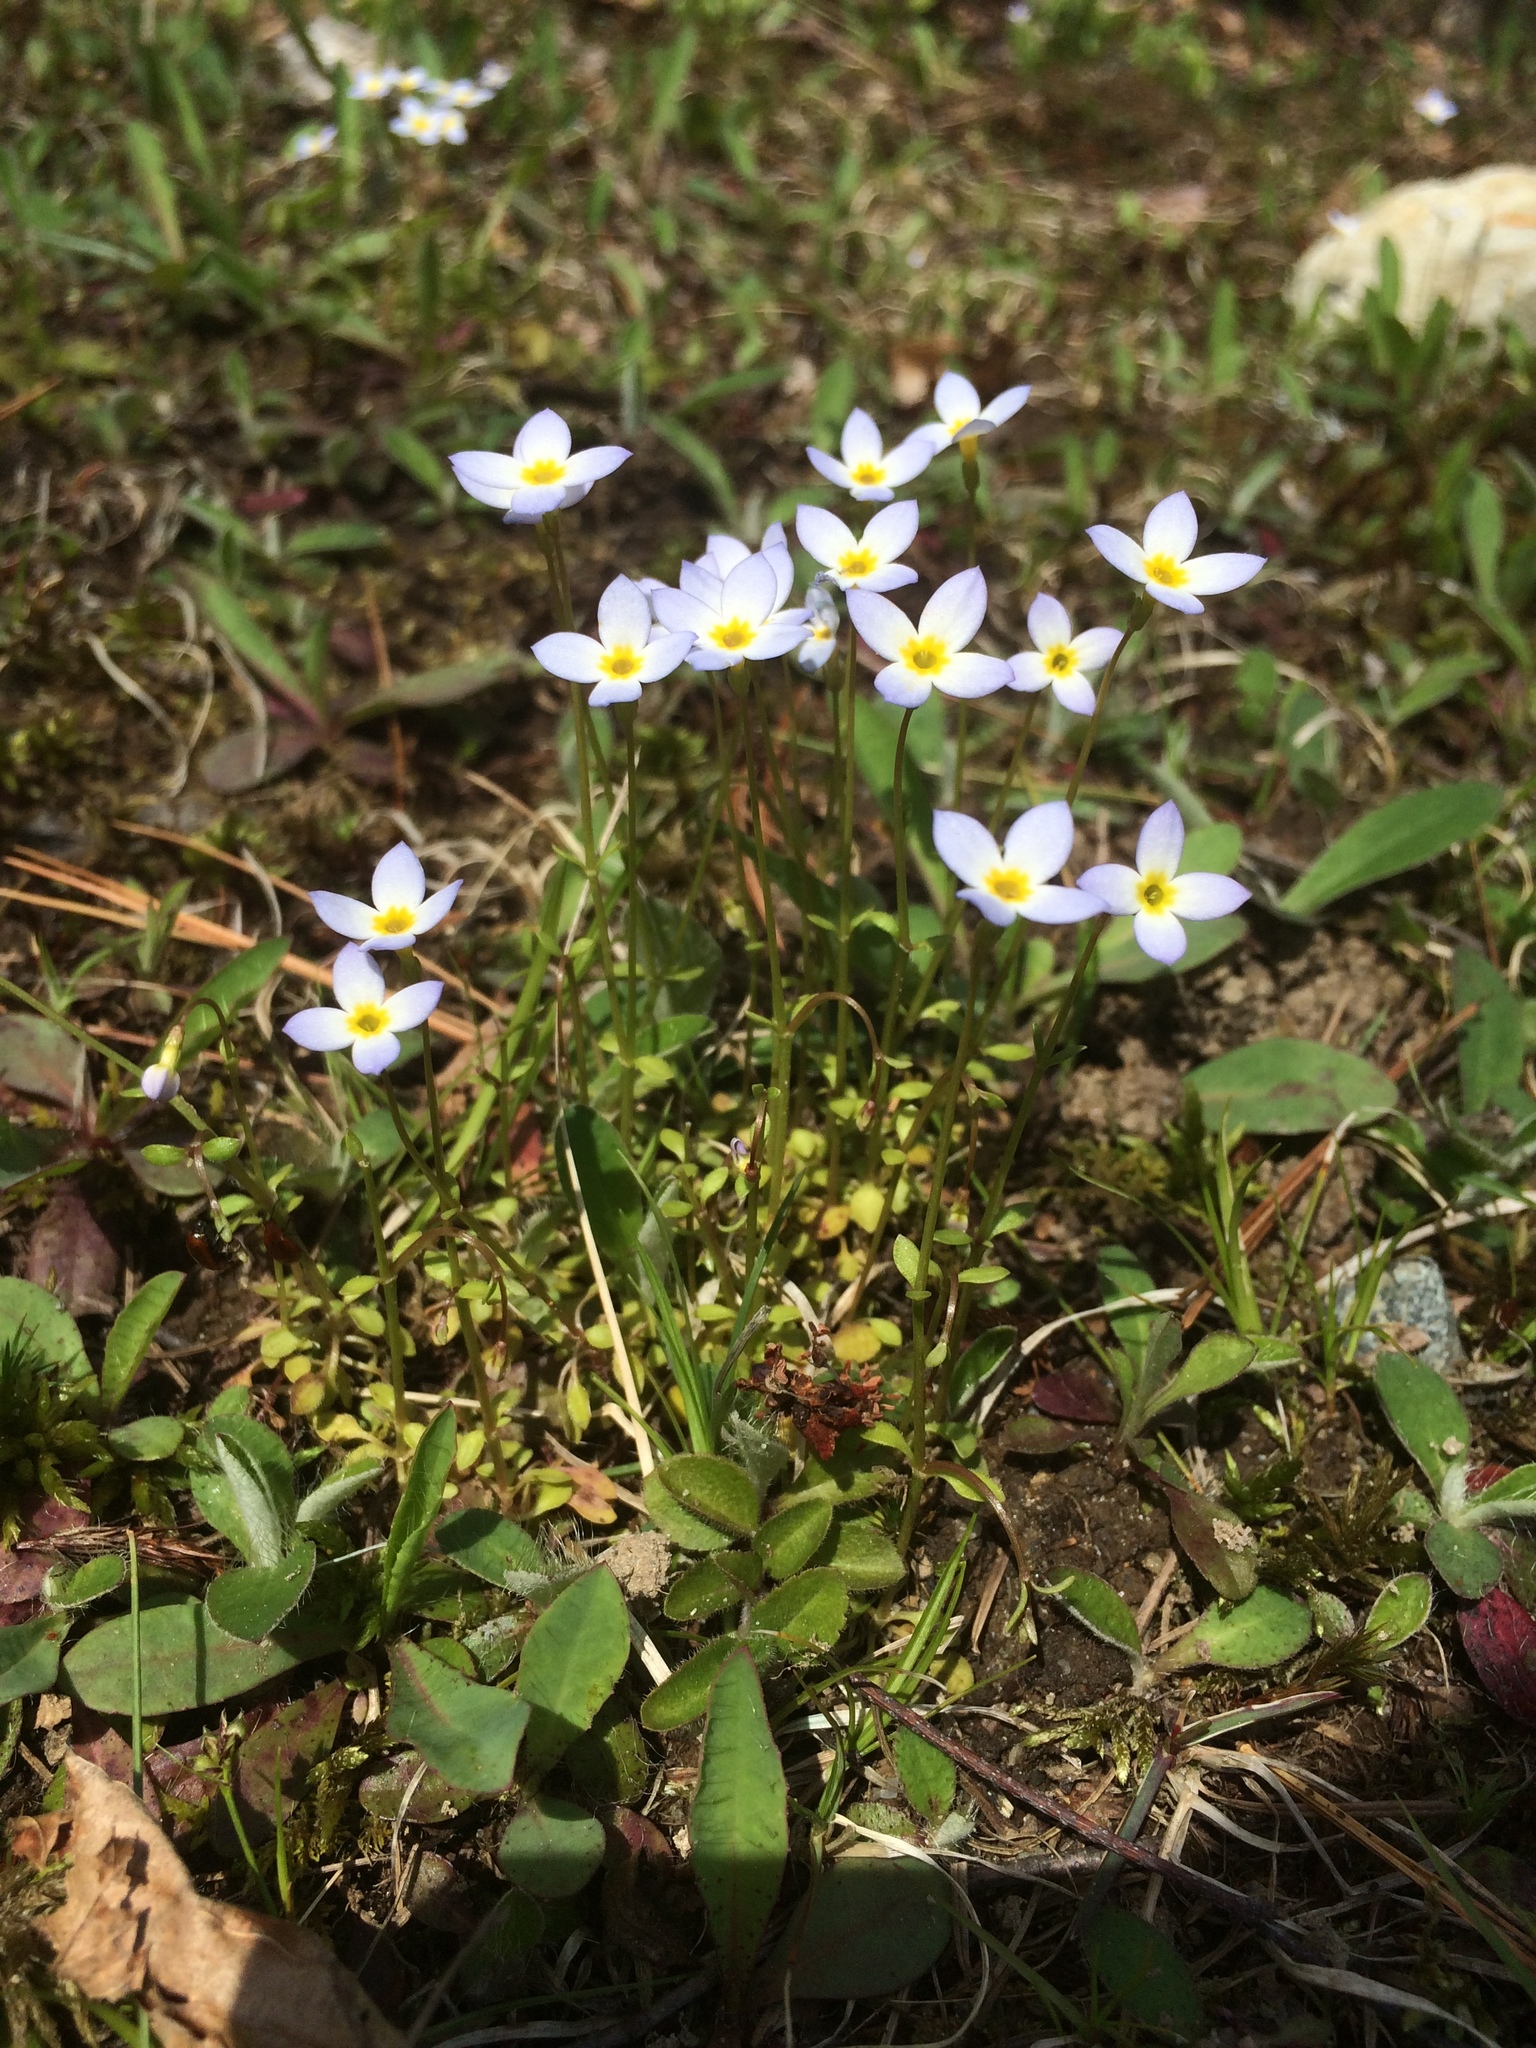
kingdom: Plantae
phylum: Tracheophyta
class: Magnoliopsida
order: Gentianales
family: Rubiaceae
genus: Houstonia
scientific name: Houstonia caerulea
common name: Bluets
